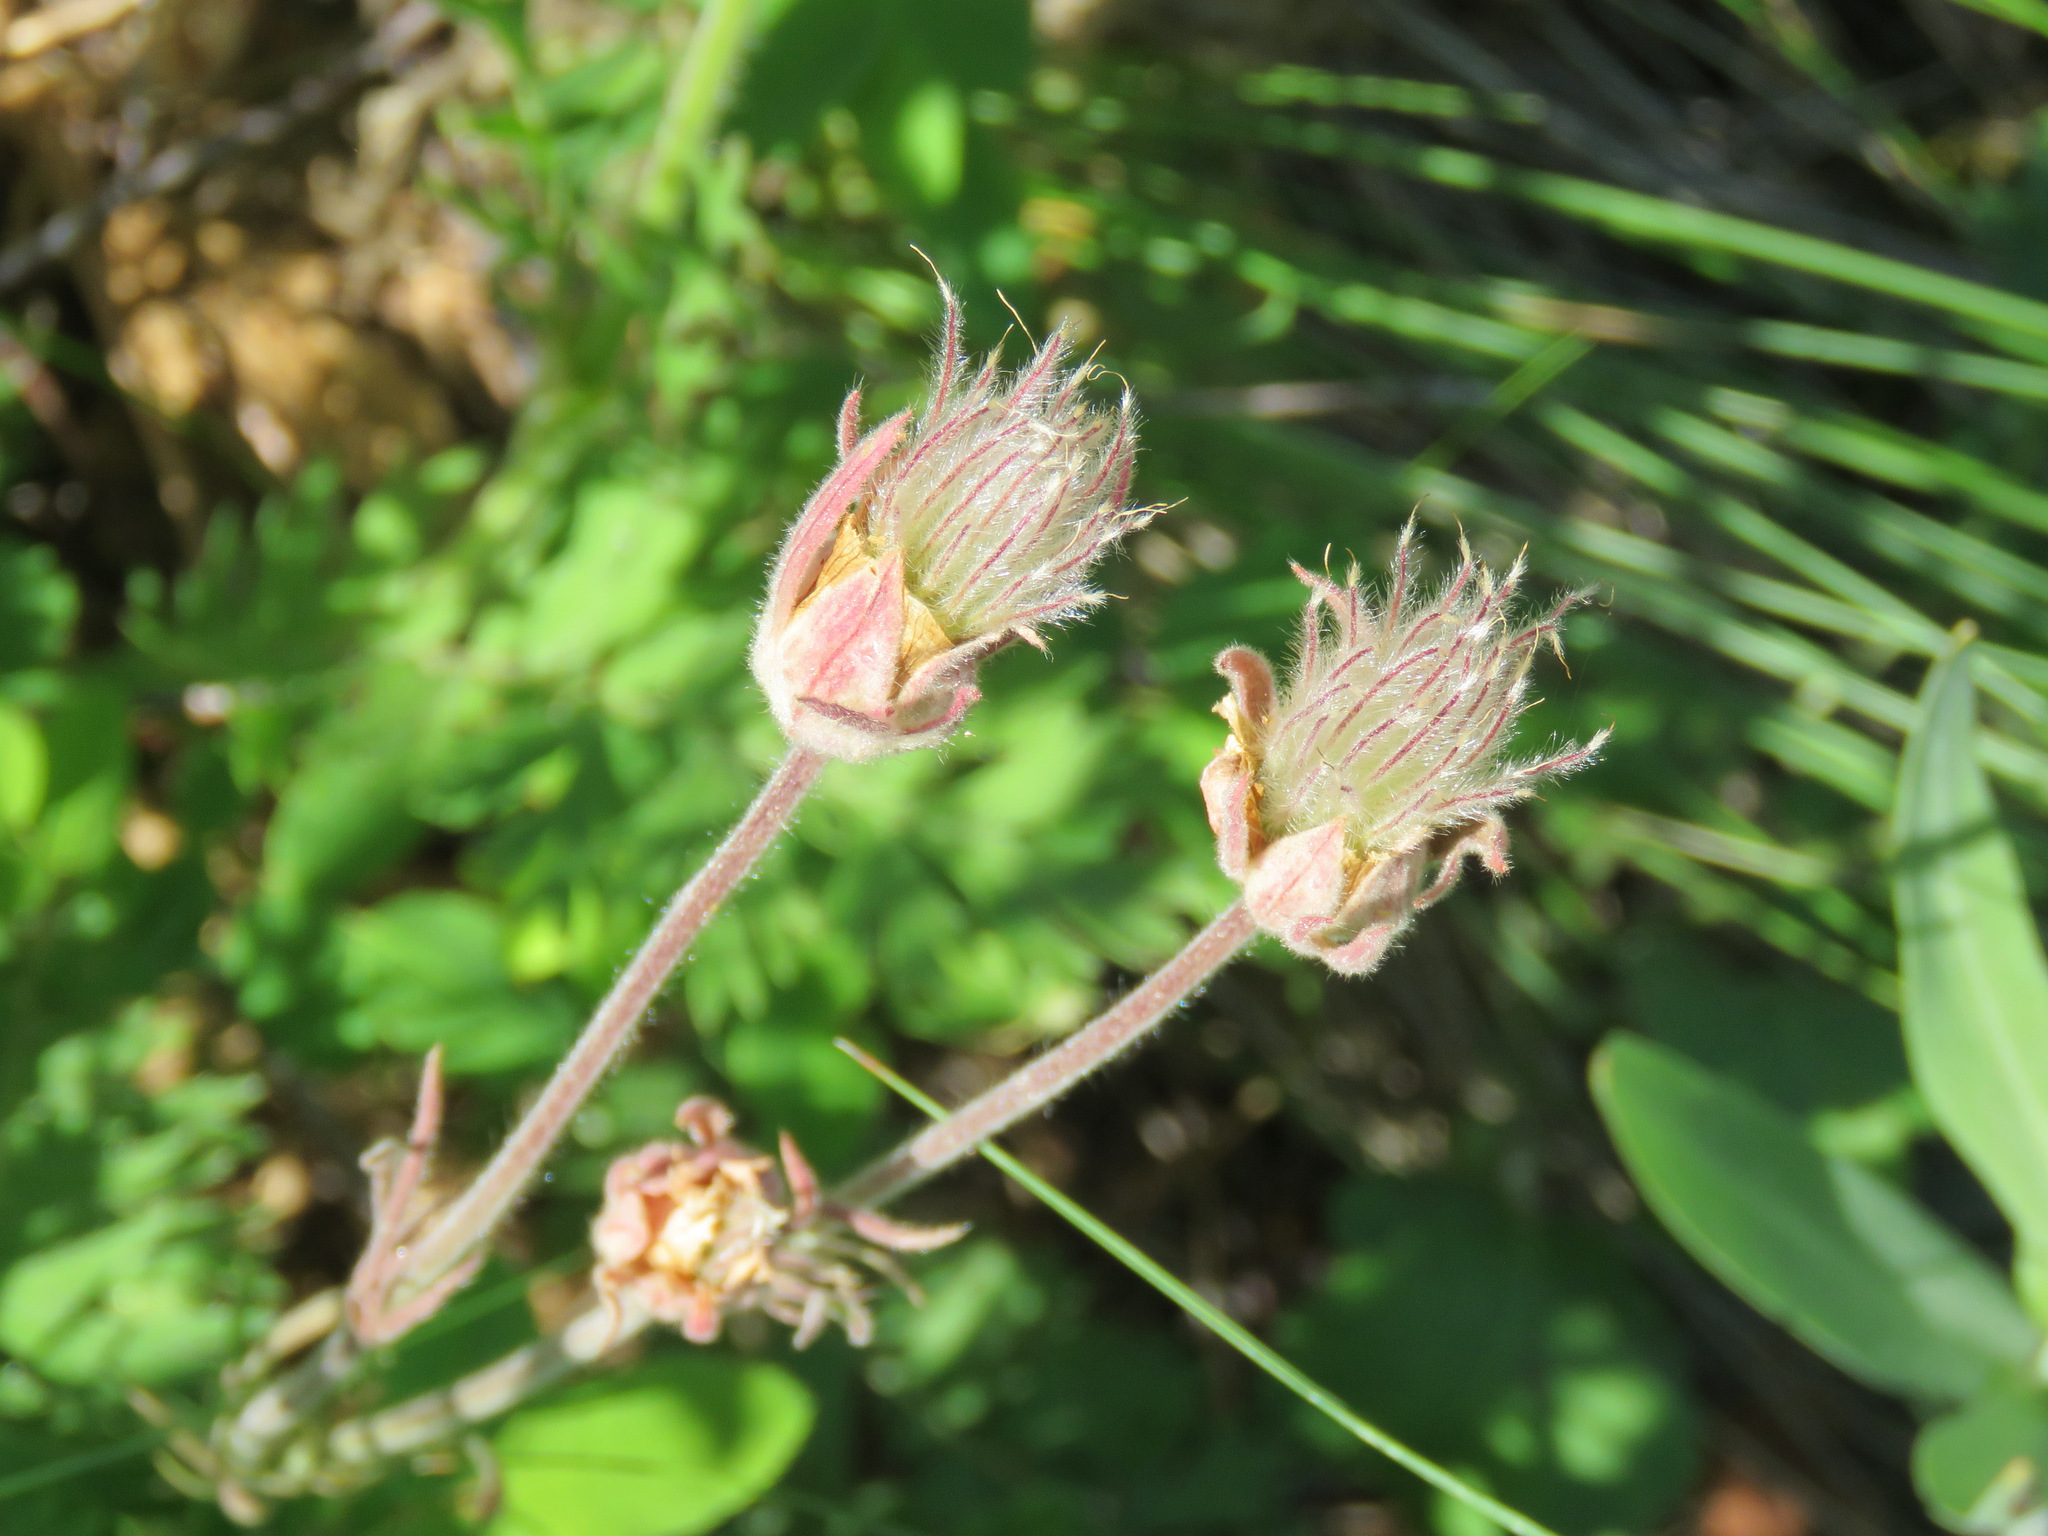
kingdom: Plantae
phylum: Tracheophyta
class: Magnoliopsida
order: Rosales
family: Rosaceae
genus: Geum
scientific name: Geum triflorum
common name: Old man's whiskers
